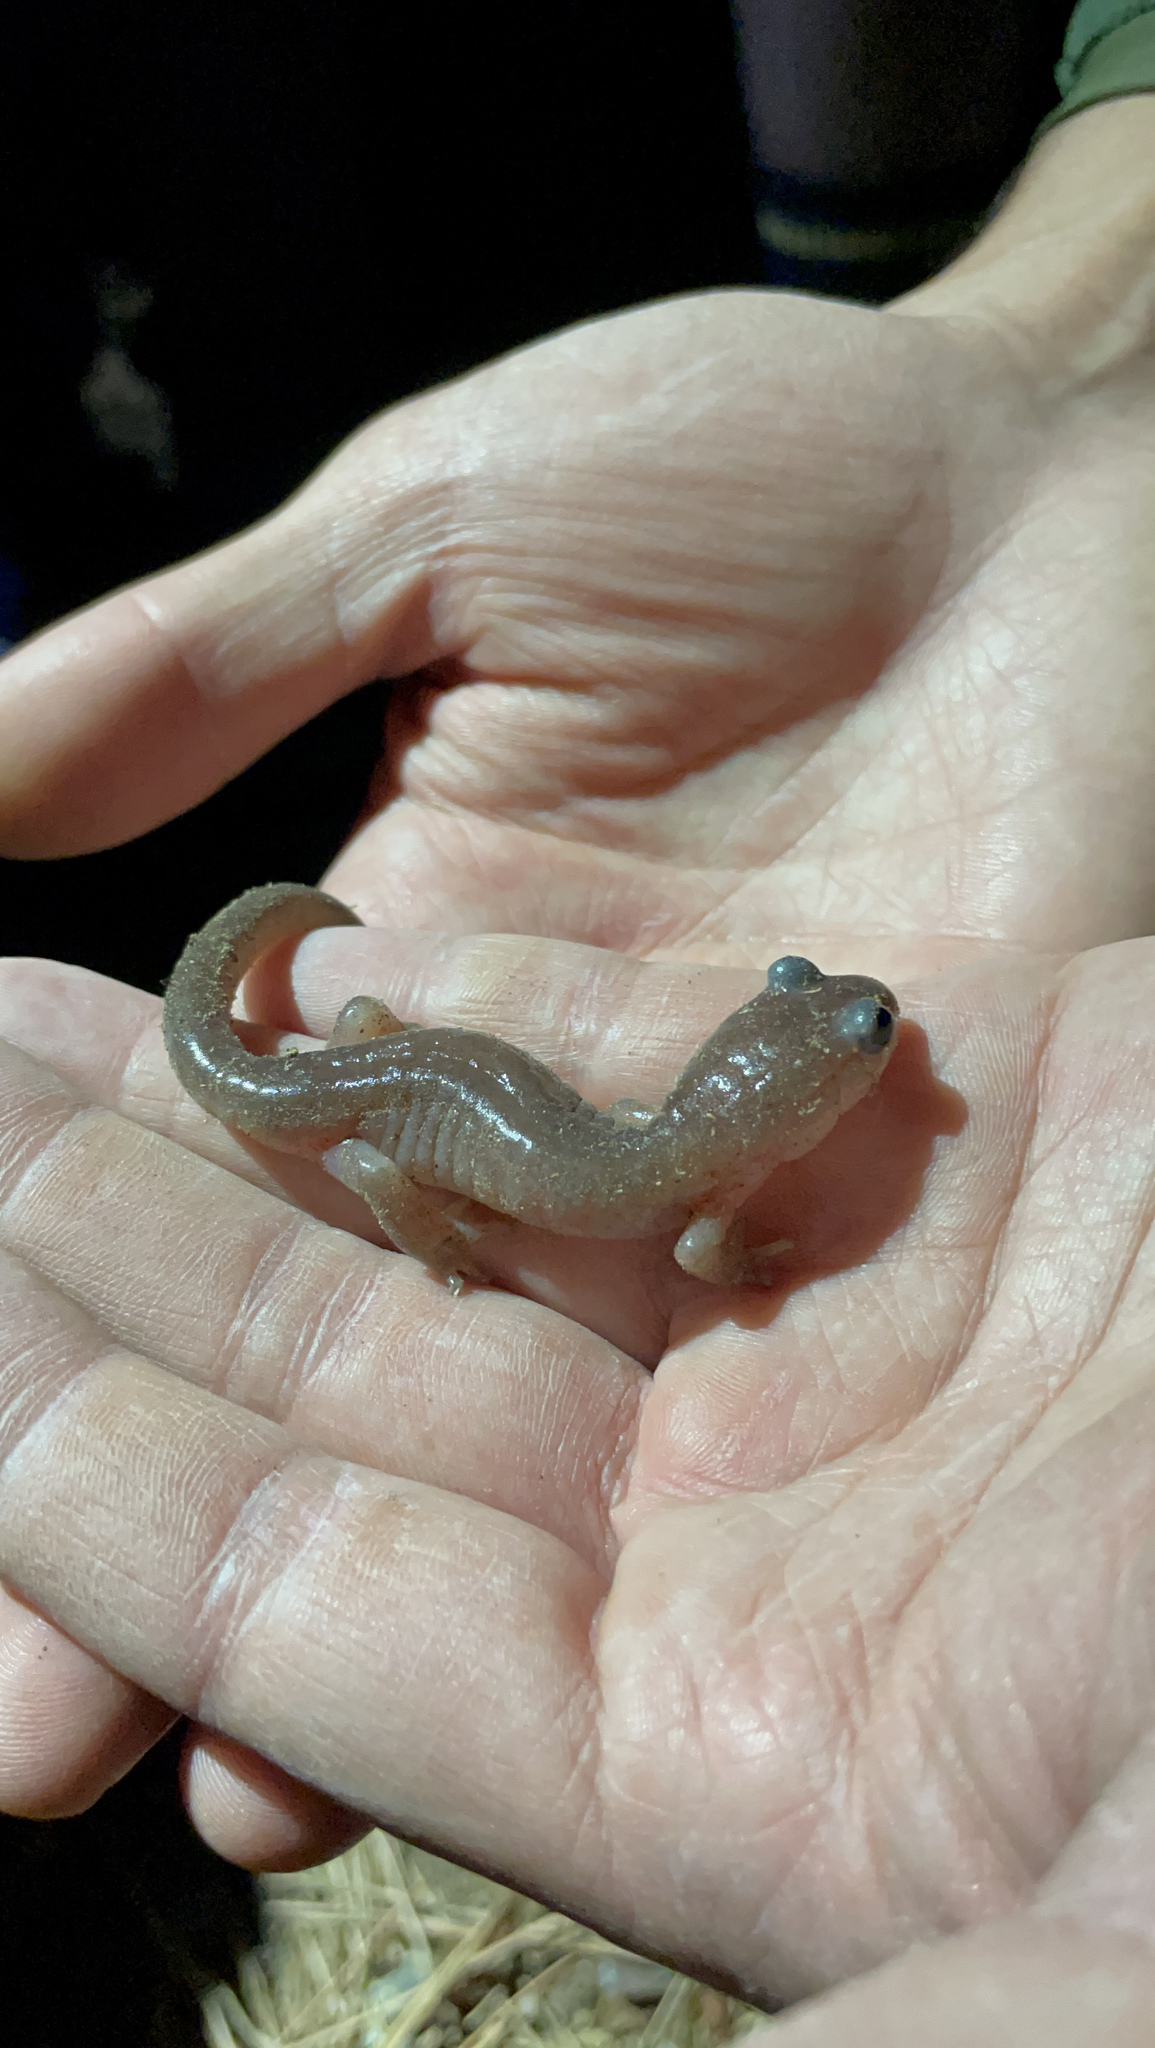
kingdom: Animalia
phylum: Chordata
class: Amphibia
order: Caudata
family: Plethodontidae
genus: Ensatina
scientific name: Ensatina eschscholtzii
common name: Ensatina
